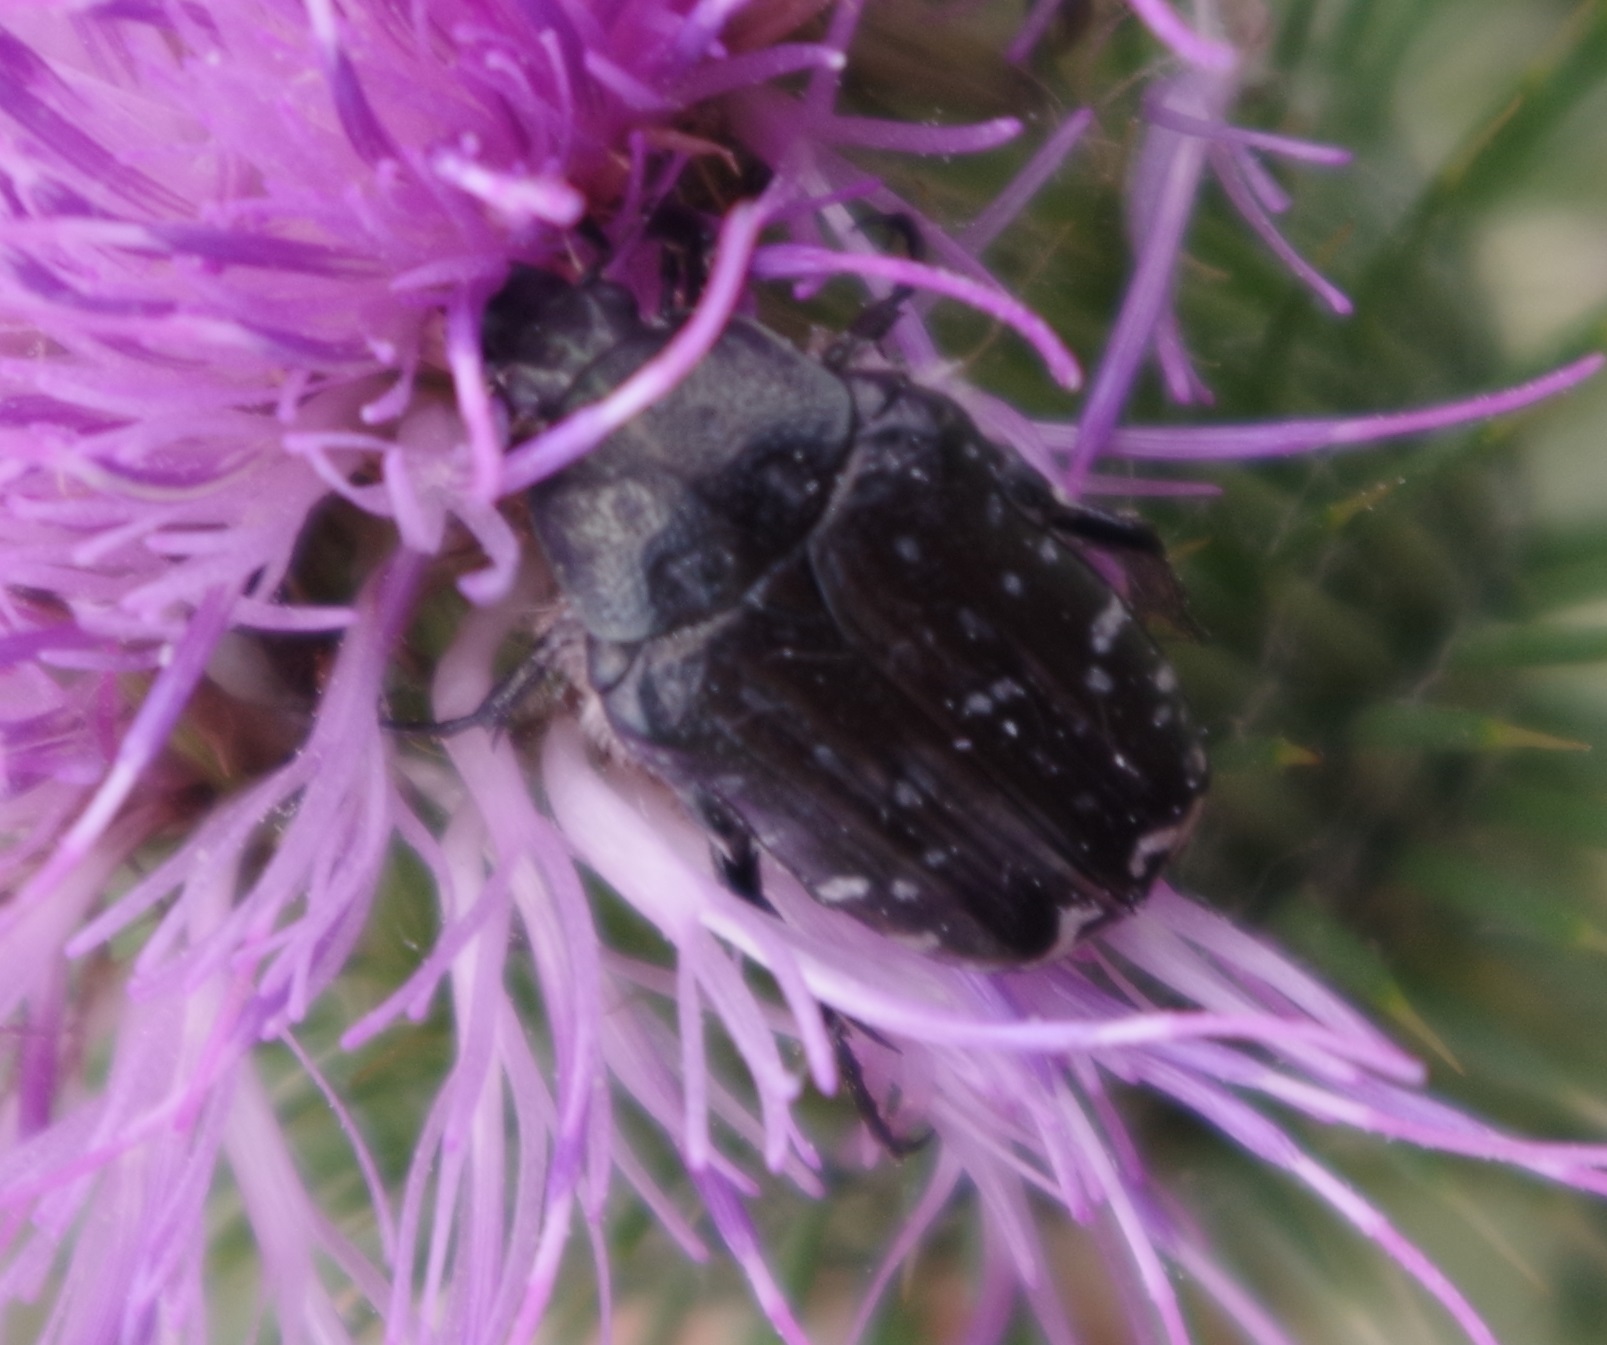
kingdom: Animalia
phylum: Arthropoda
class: Insecta
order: Coleoptera
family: Scarabaeidae
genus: Oxythyrea
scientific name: Oxythyrea funesta
